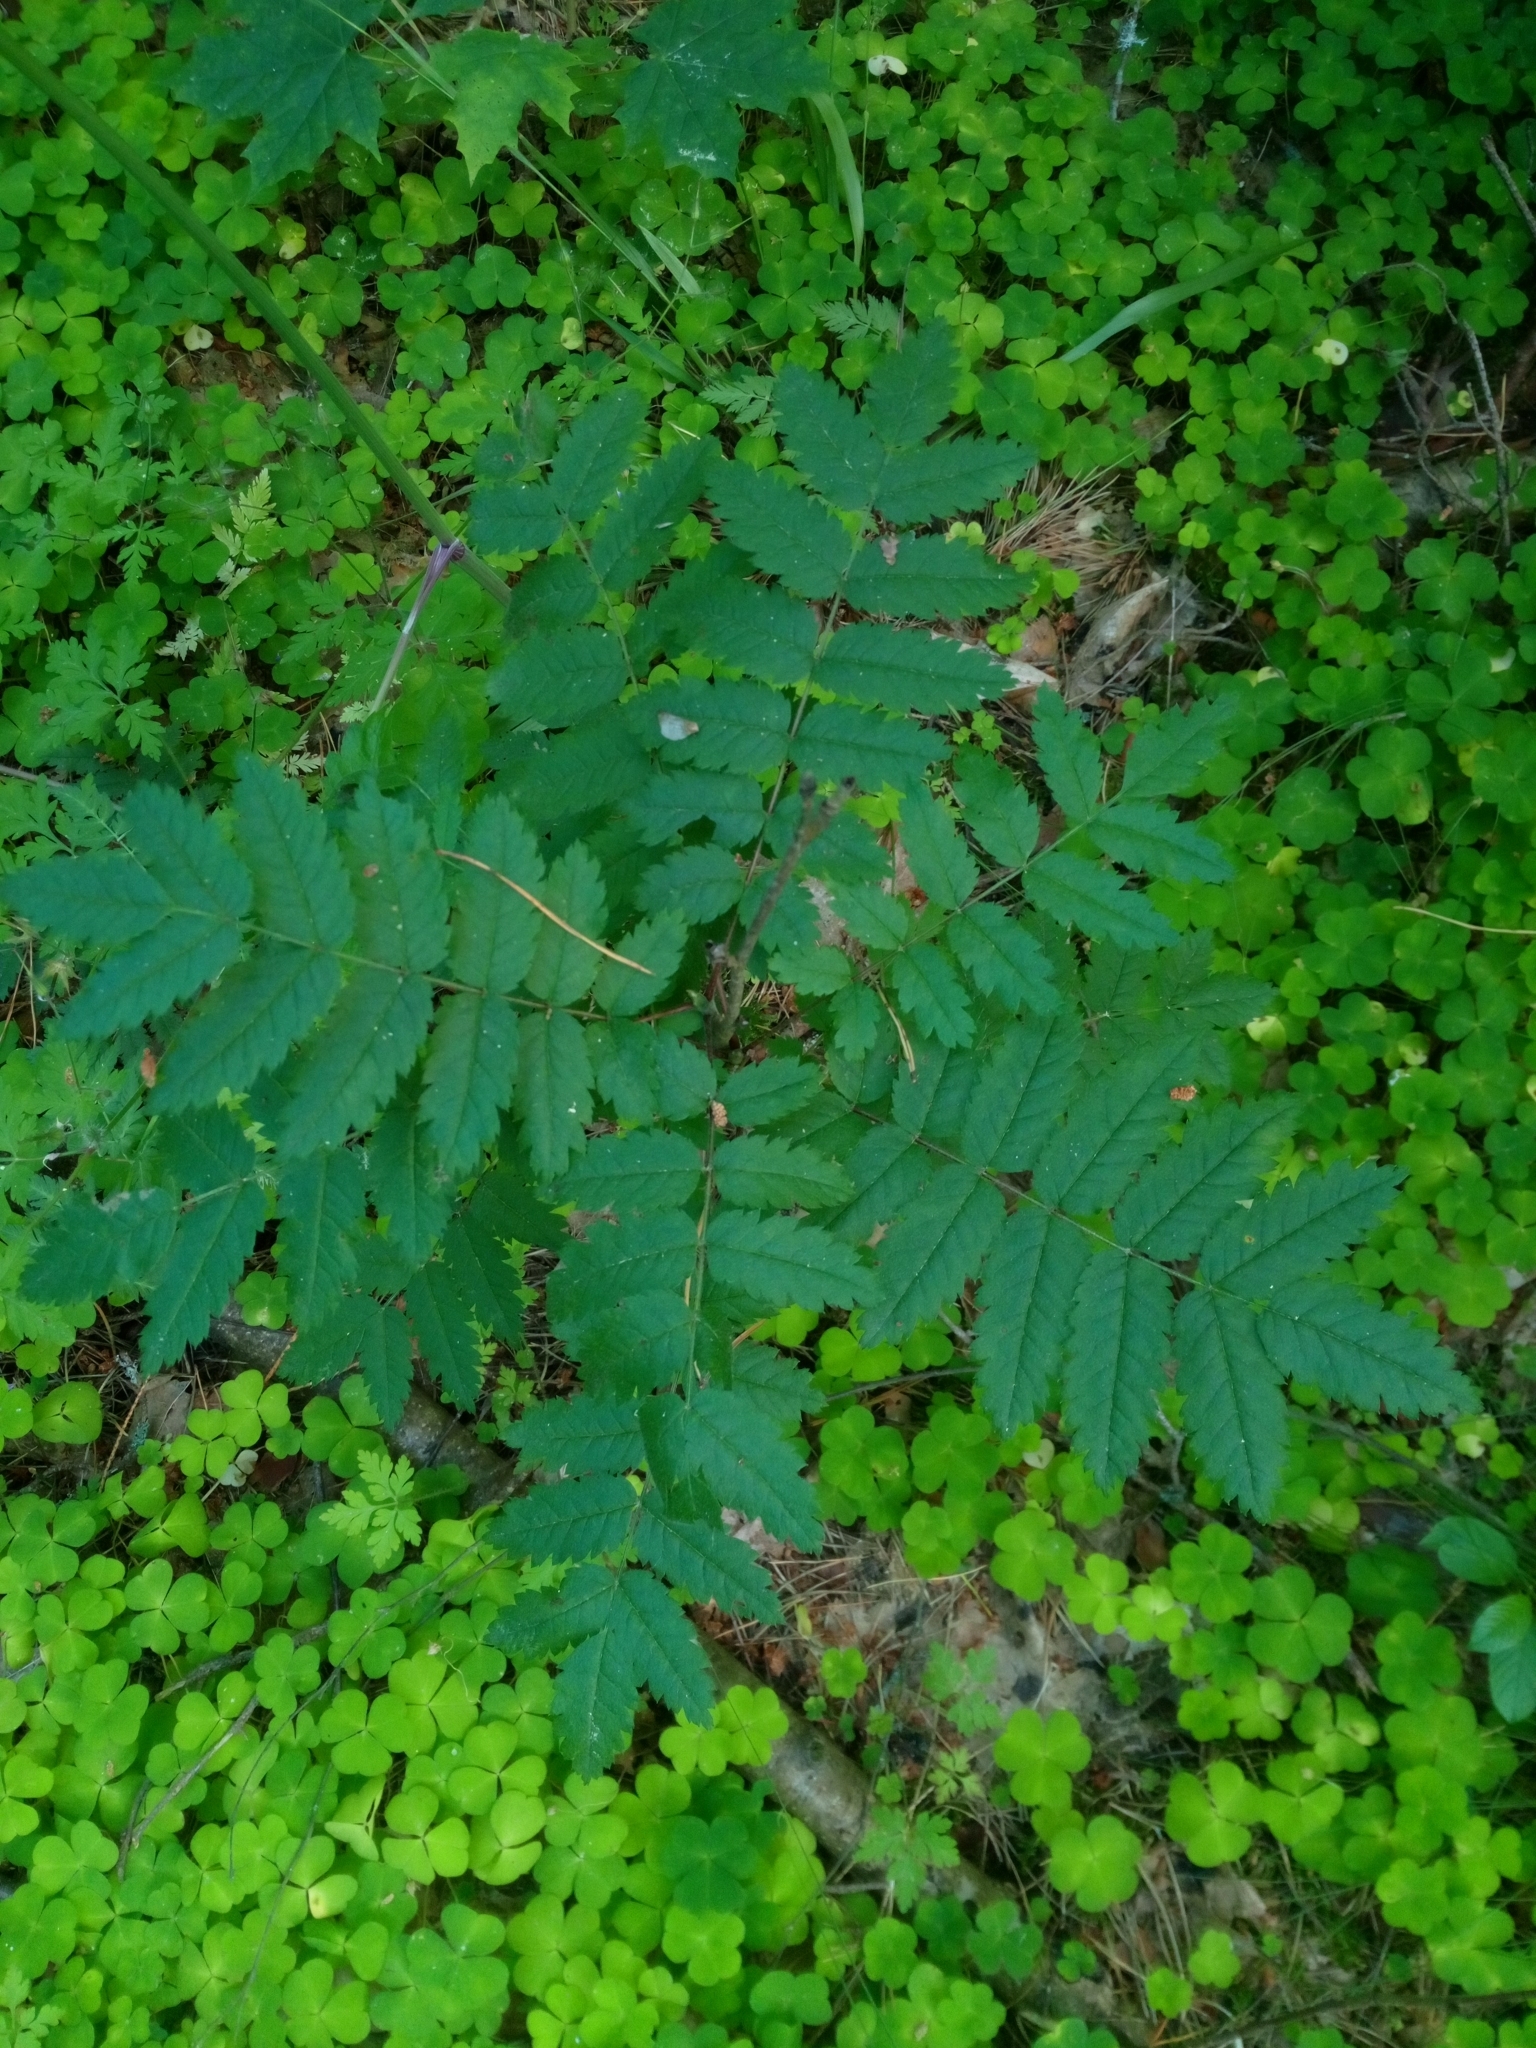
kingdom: Plantae
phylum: Tracheophyta
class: Magnoliopsida
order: Rosales
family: Rosaceae
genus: Sorbus
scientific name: Sorbus aucuparia
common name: Rowan
